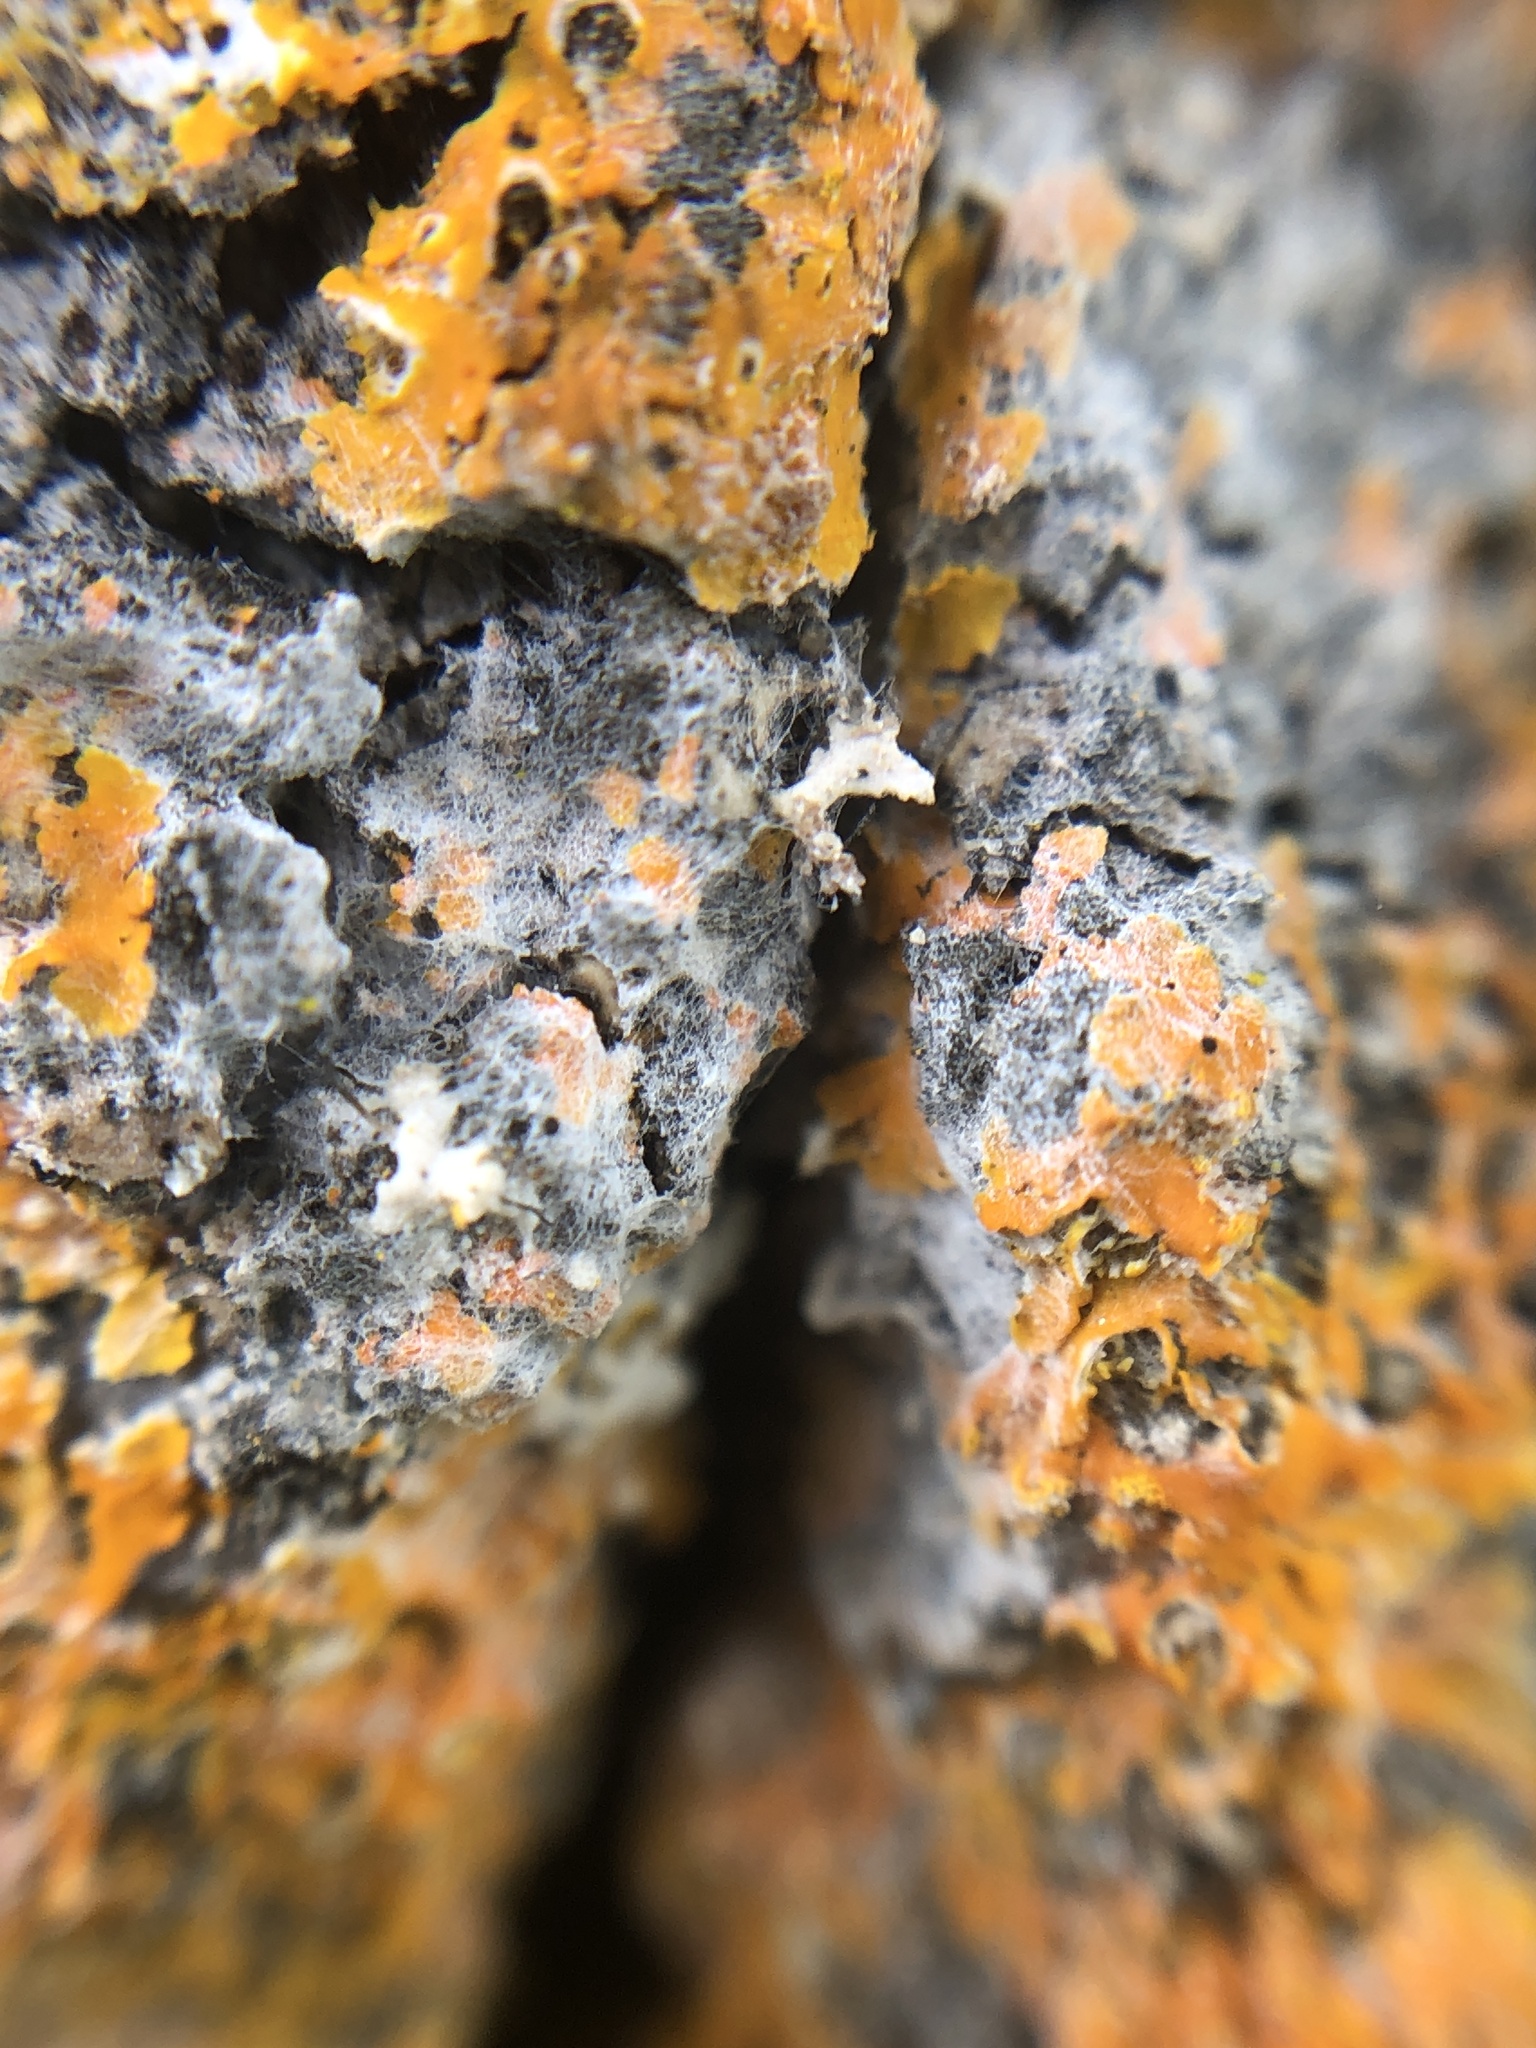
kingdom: Fungi
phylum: Ascomycota
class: Lecanoromycetes
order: Teloschistales
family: Teloschistaceae
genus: Oxneria
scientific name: Oxneria fallax
